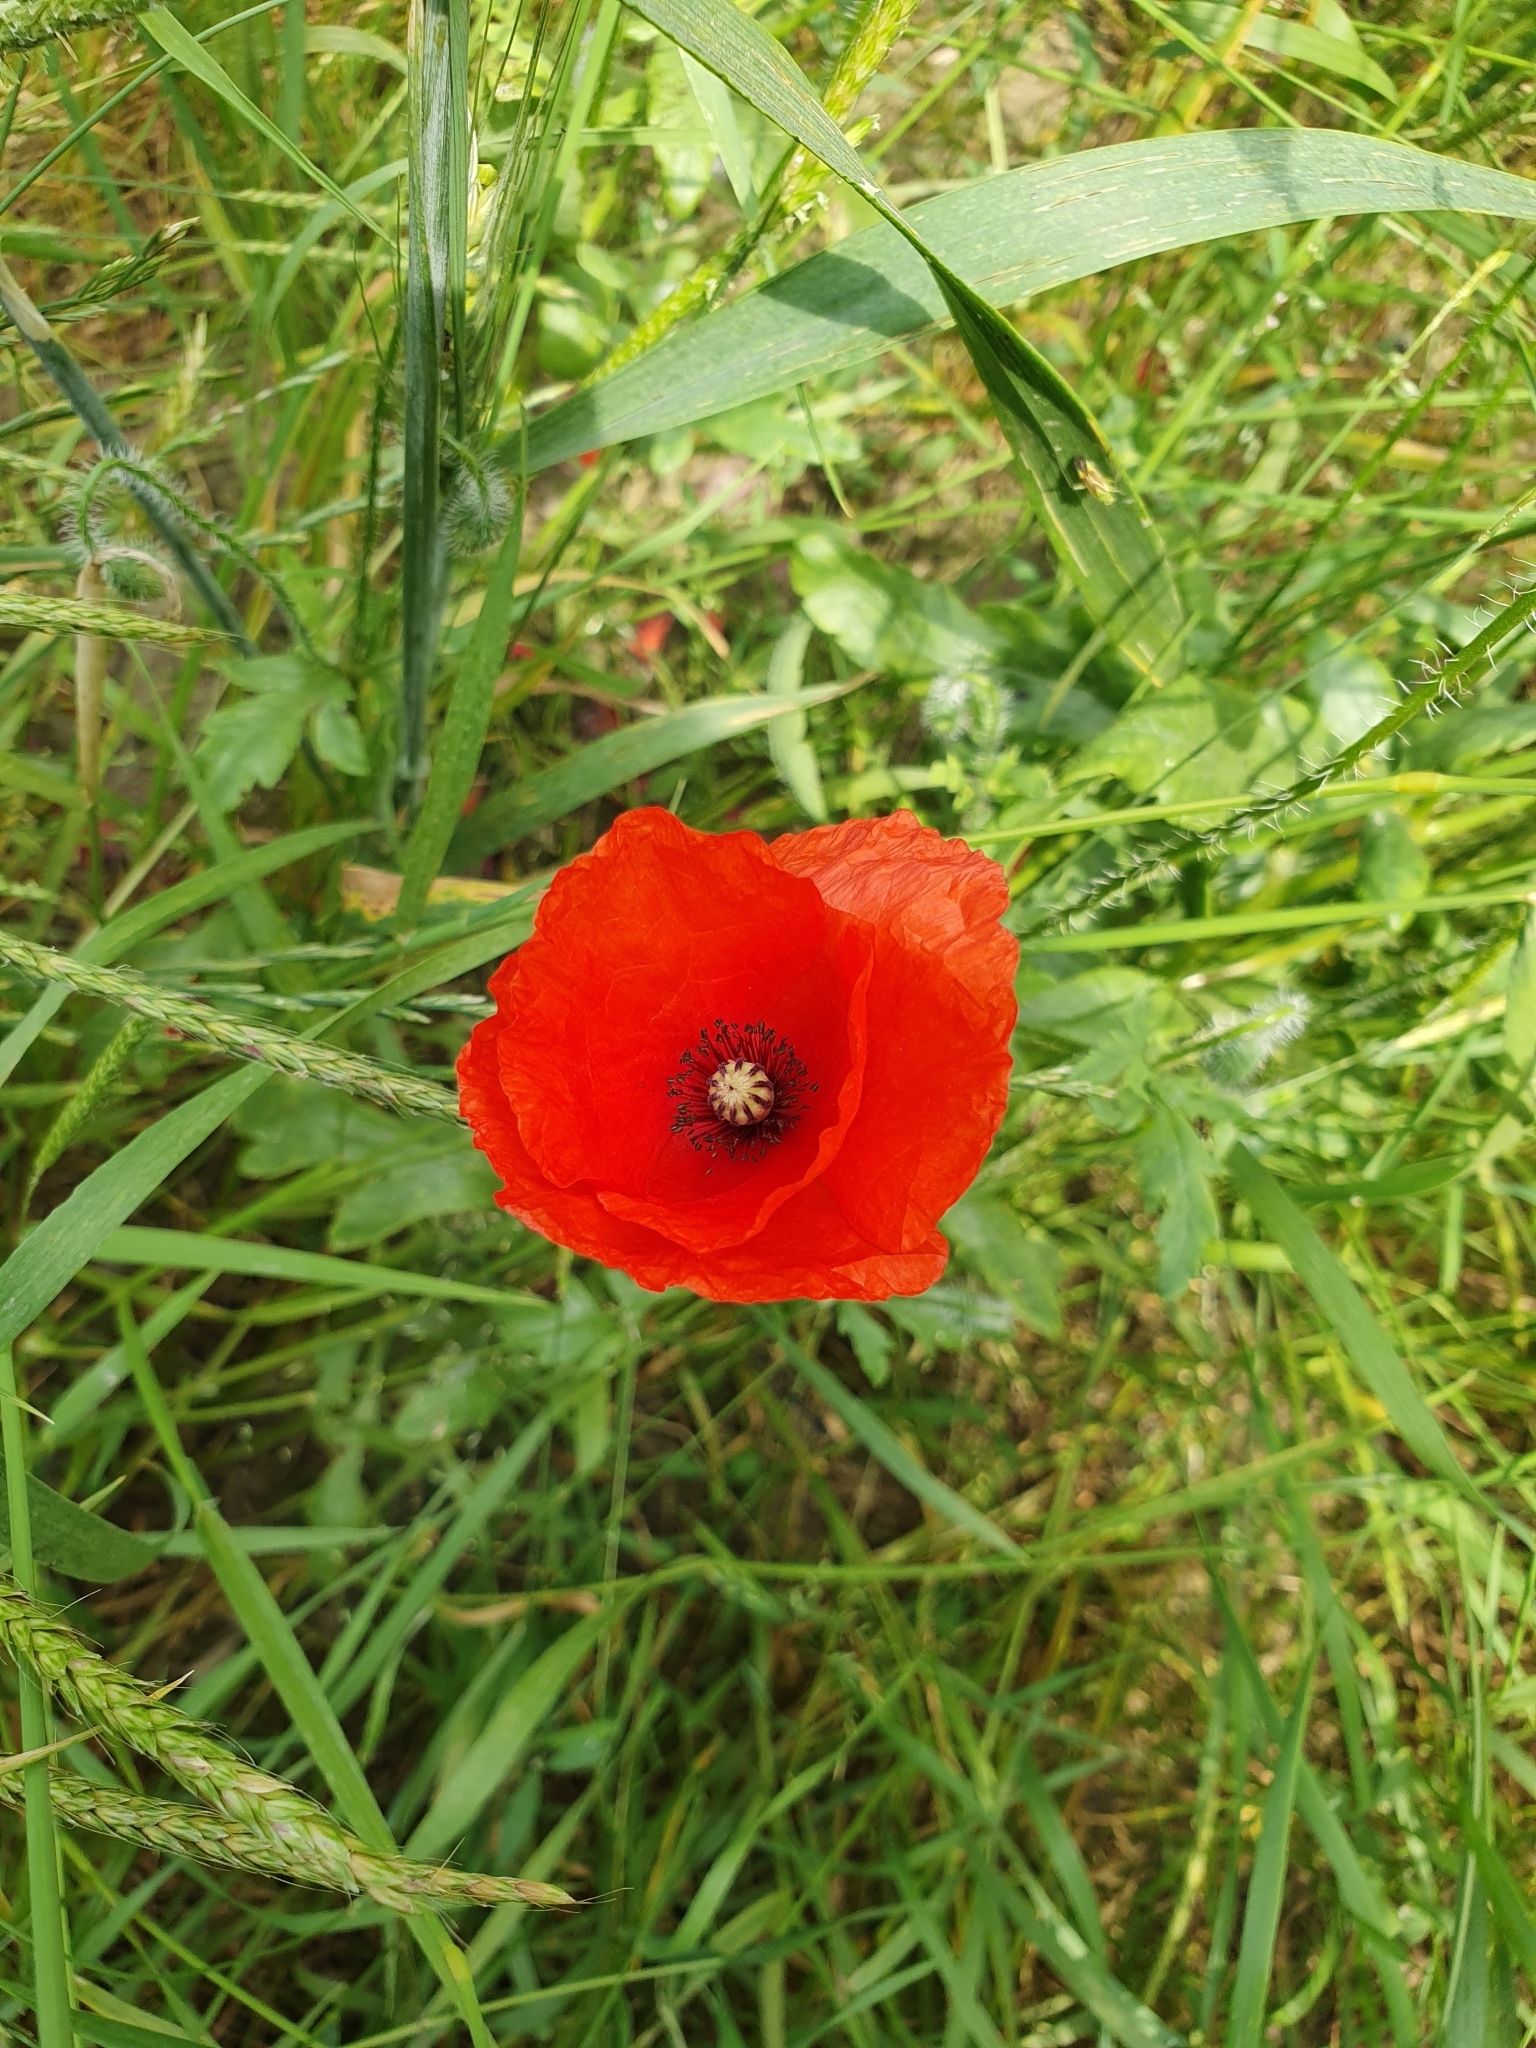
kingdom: Plantae
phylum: Tracheophyta
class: Magnoliopsida
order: Ranunculales
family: Papaveraceae
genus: Papaver
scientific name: Papaver rhoeas
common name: Corn poppy
